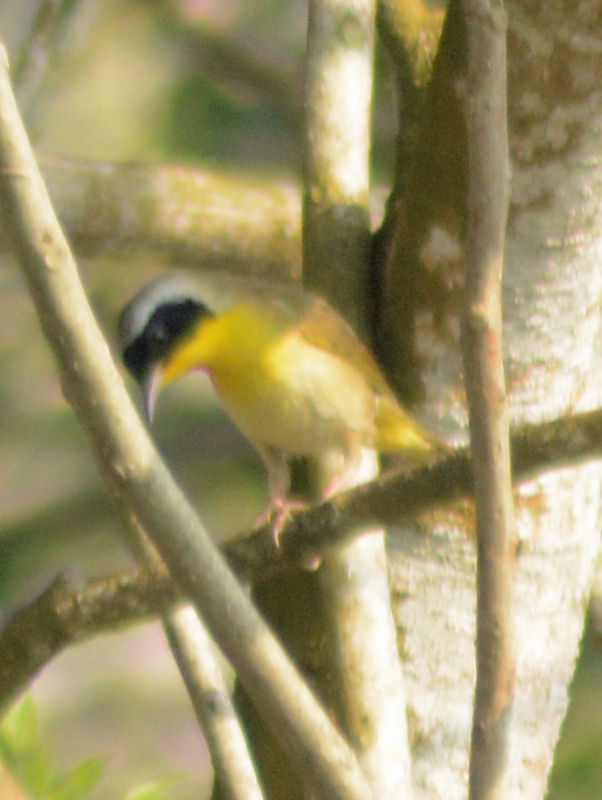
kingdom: Animalia
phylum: Chordata
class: Aves
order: Passeriformes
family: Parulidae
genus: Geothlypis
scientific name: Geothlypis trichas
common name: Common yellowthroat
